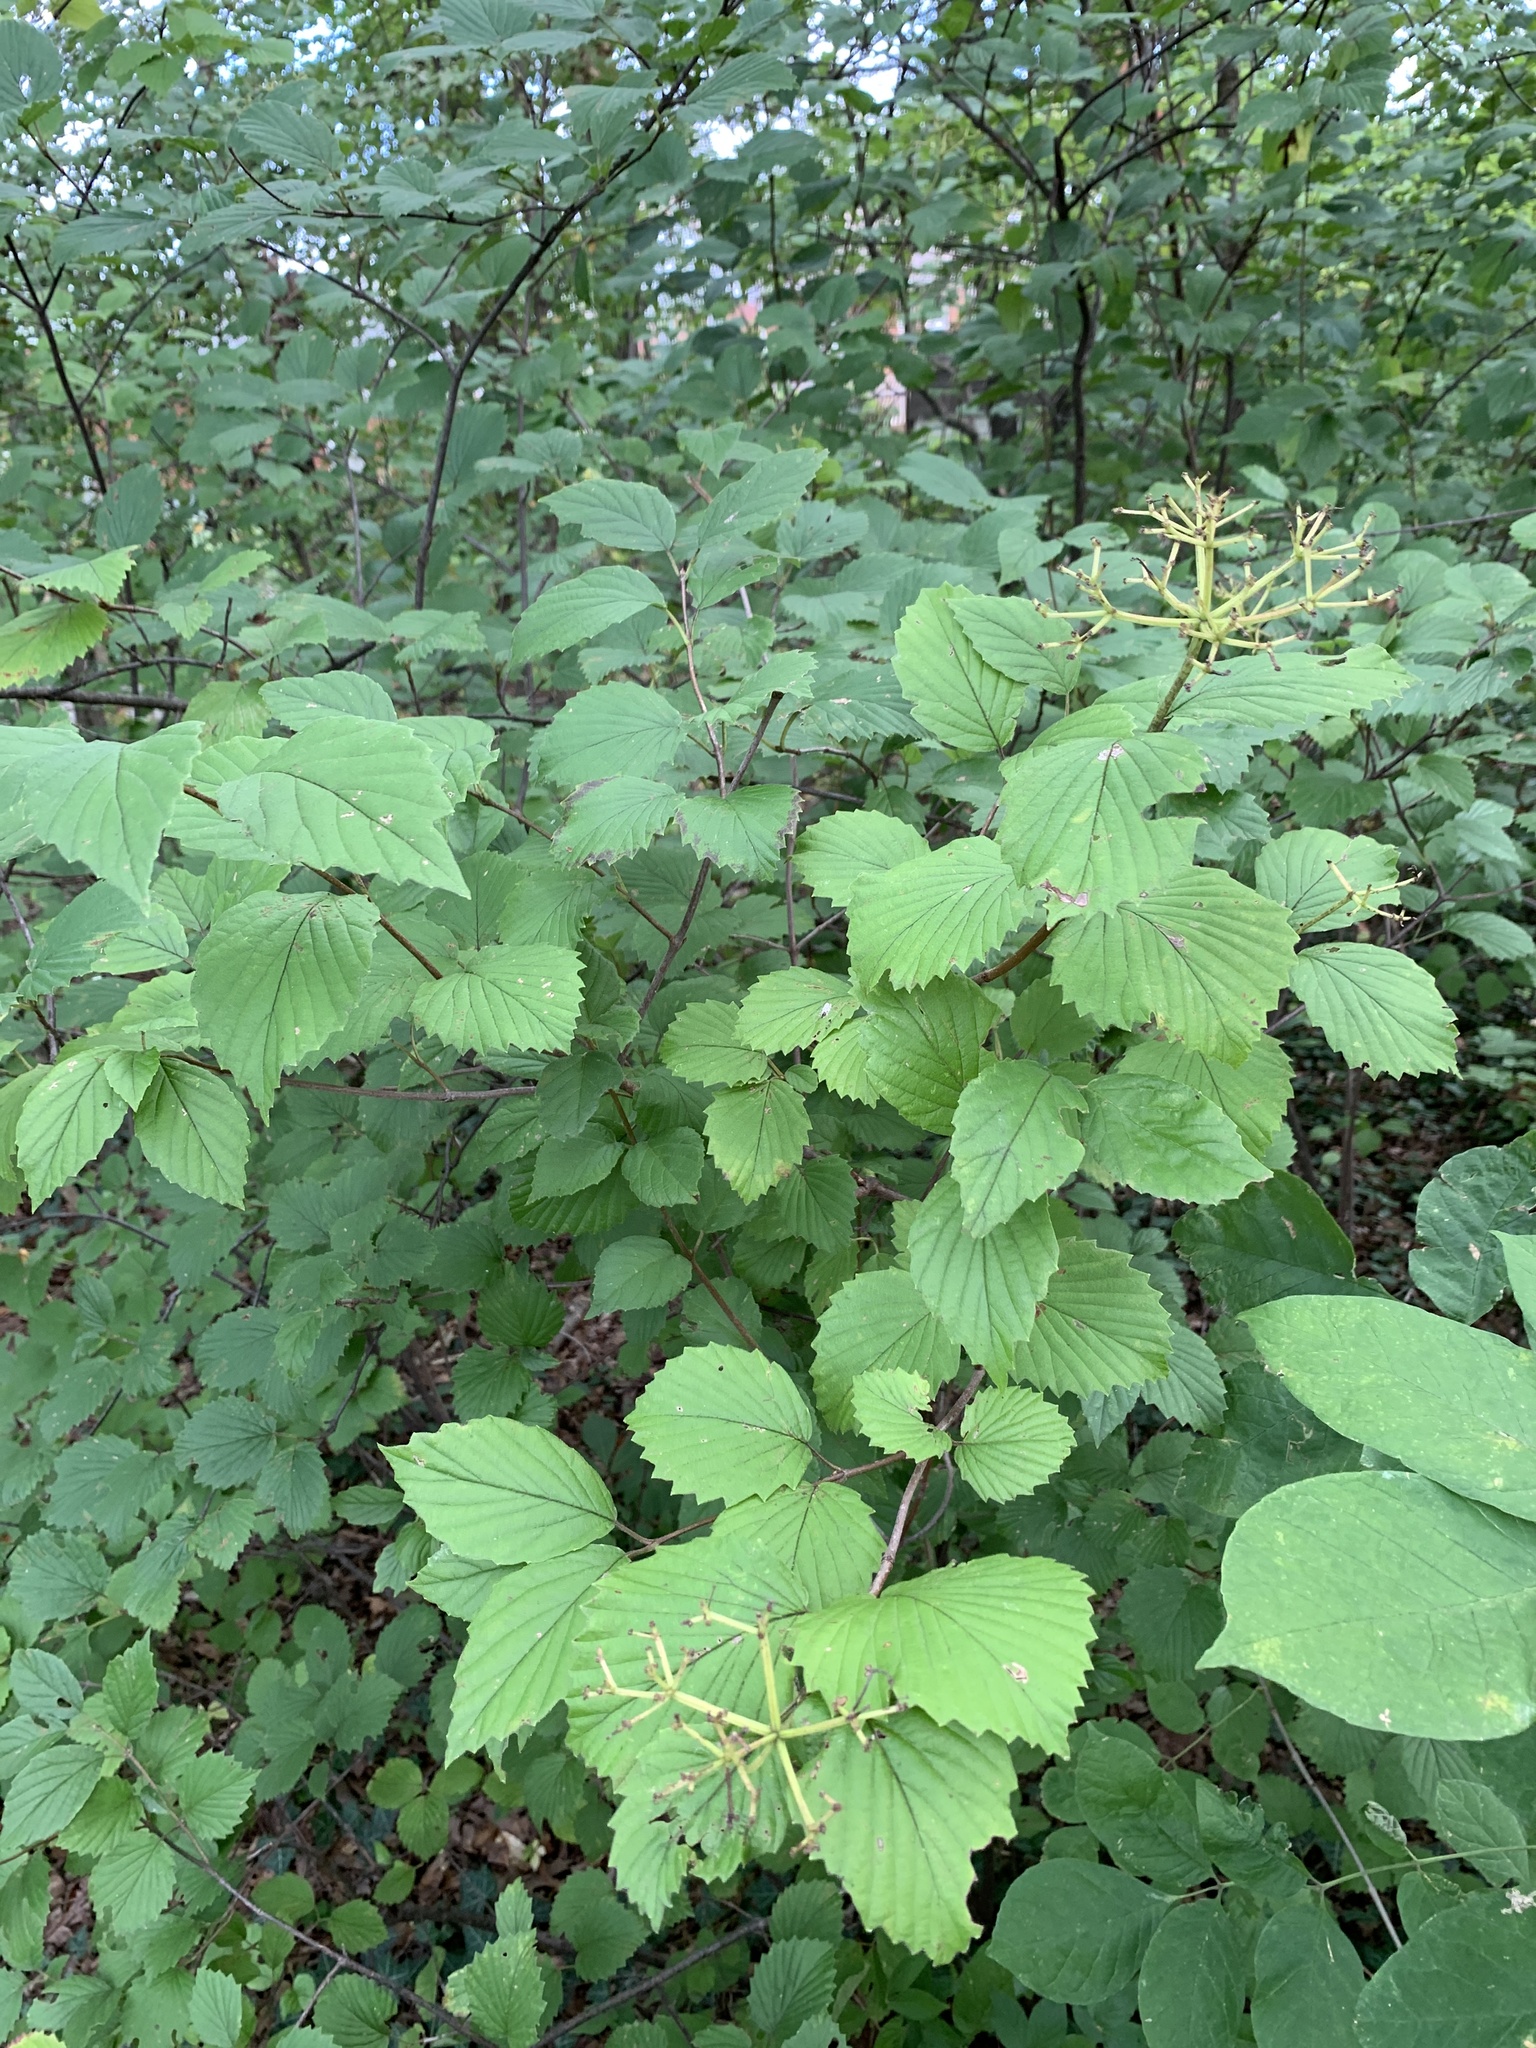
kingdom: Plantae
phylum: Tracheophyta
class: Magnoliopsida
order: Dipsacales
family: Viburnaceae
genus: Viburnum
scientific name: Viburnum dentatum
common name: Arrow-wood
